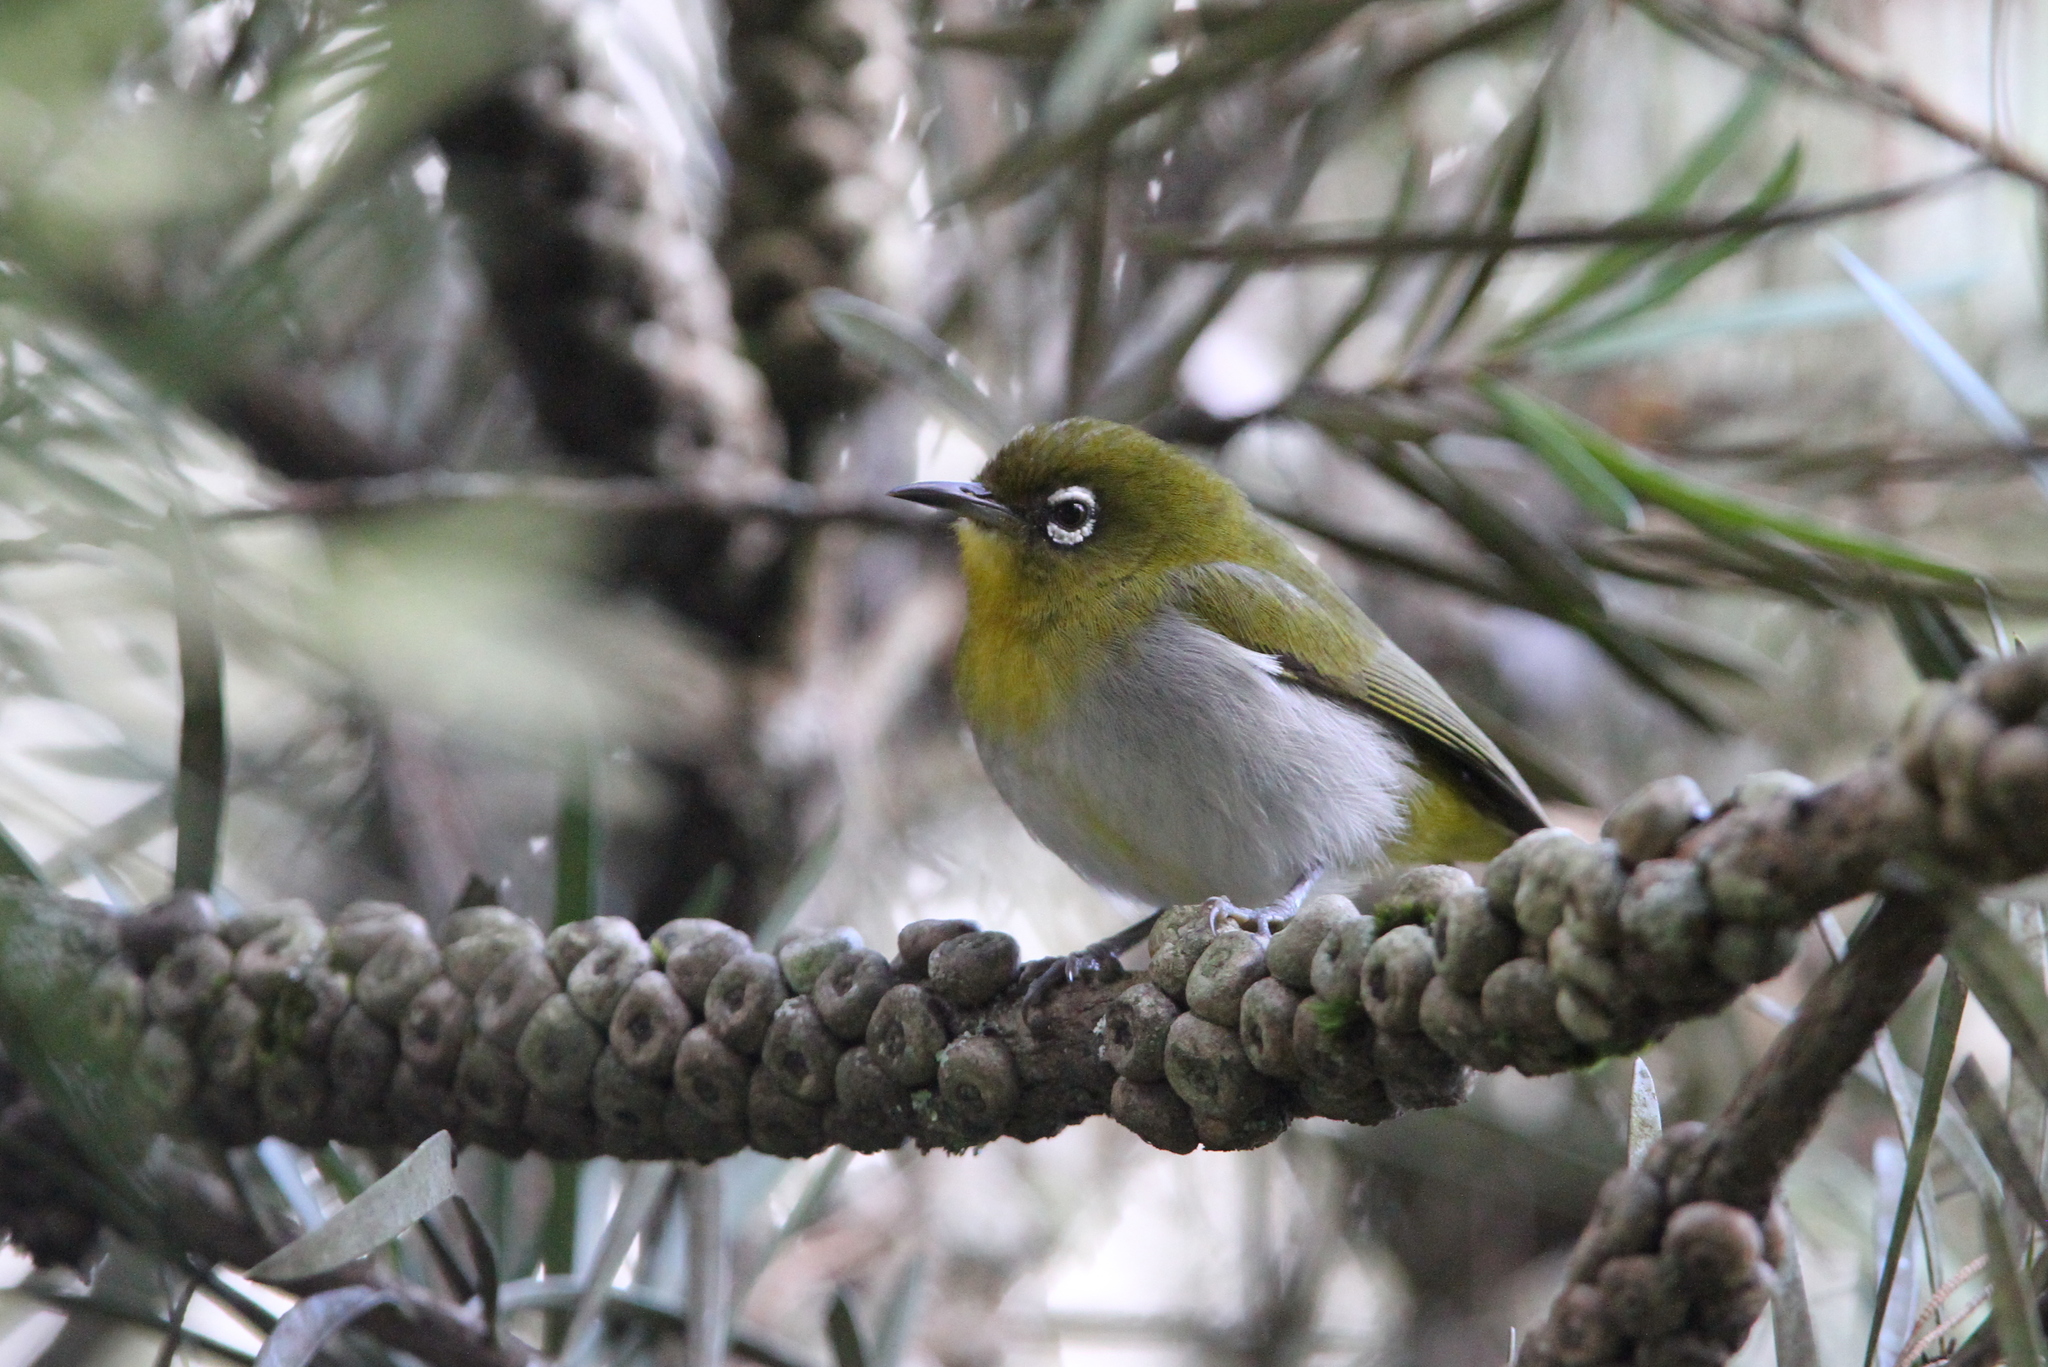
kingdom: Animalia
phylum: Chordata
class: Aves
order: Passeriformes
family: Zosteropidae
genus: Zosterops
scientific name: Zosterops ceylonensis
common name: Sri lanka white-eye
